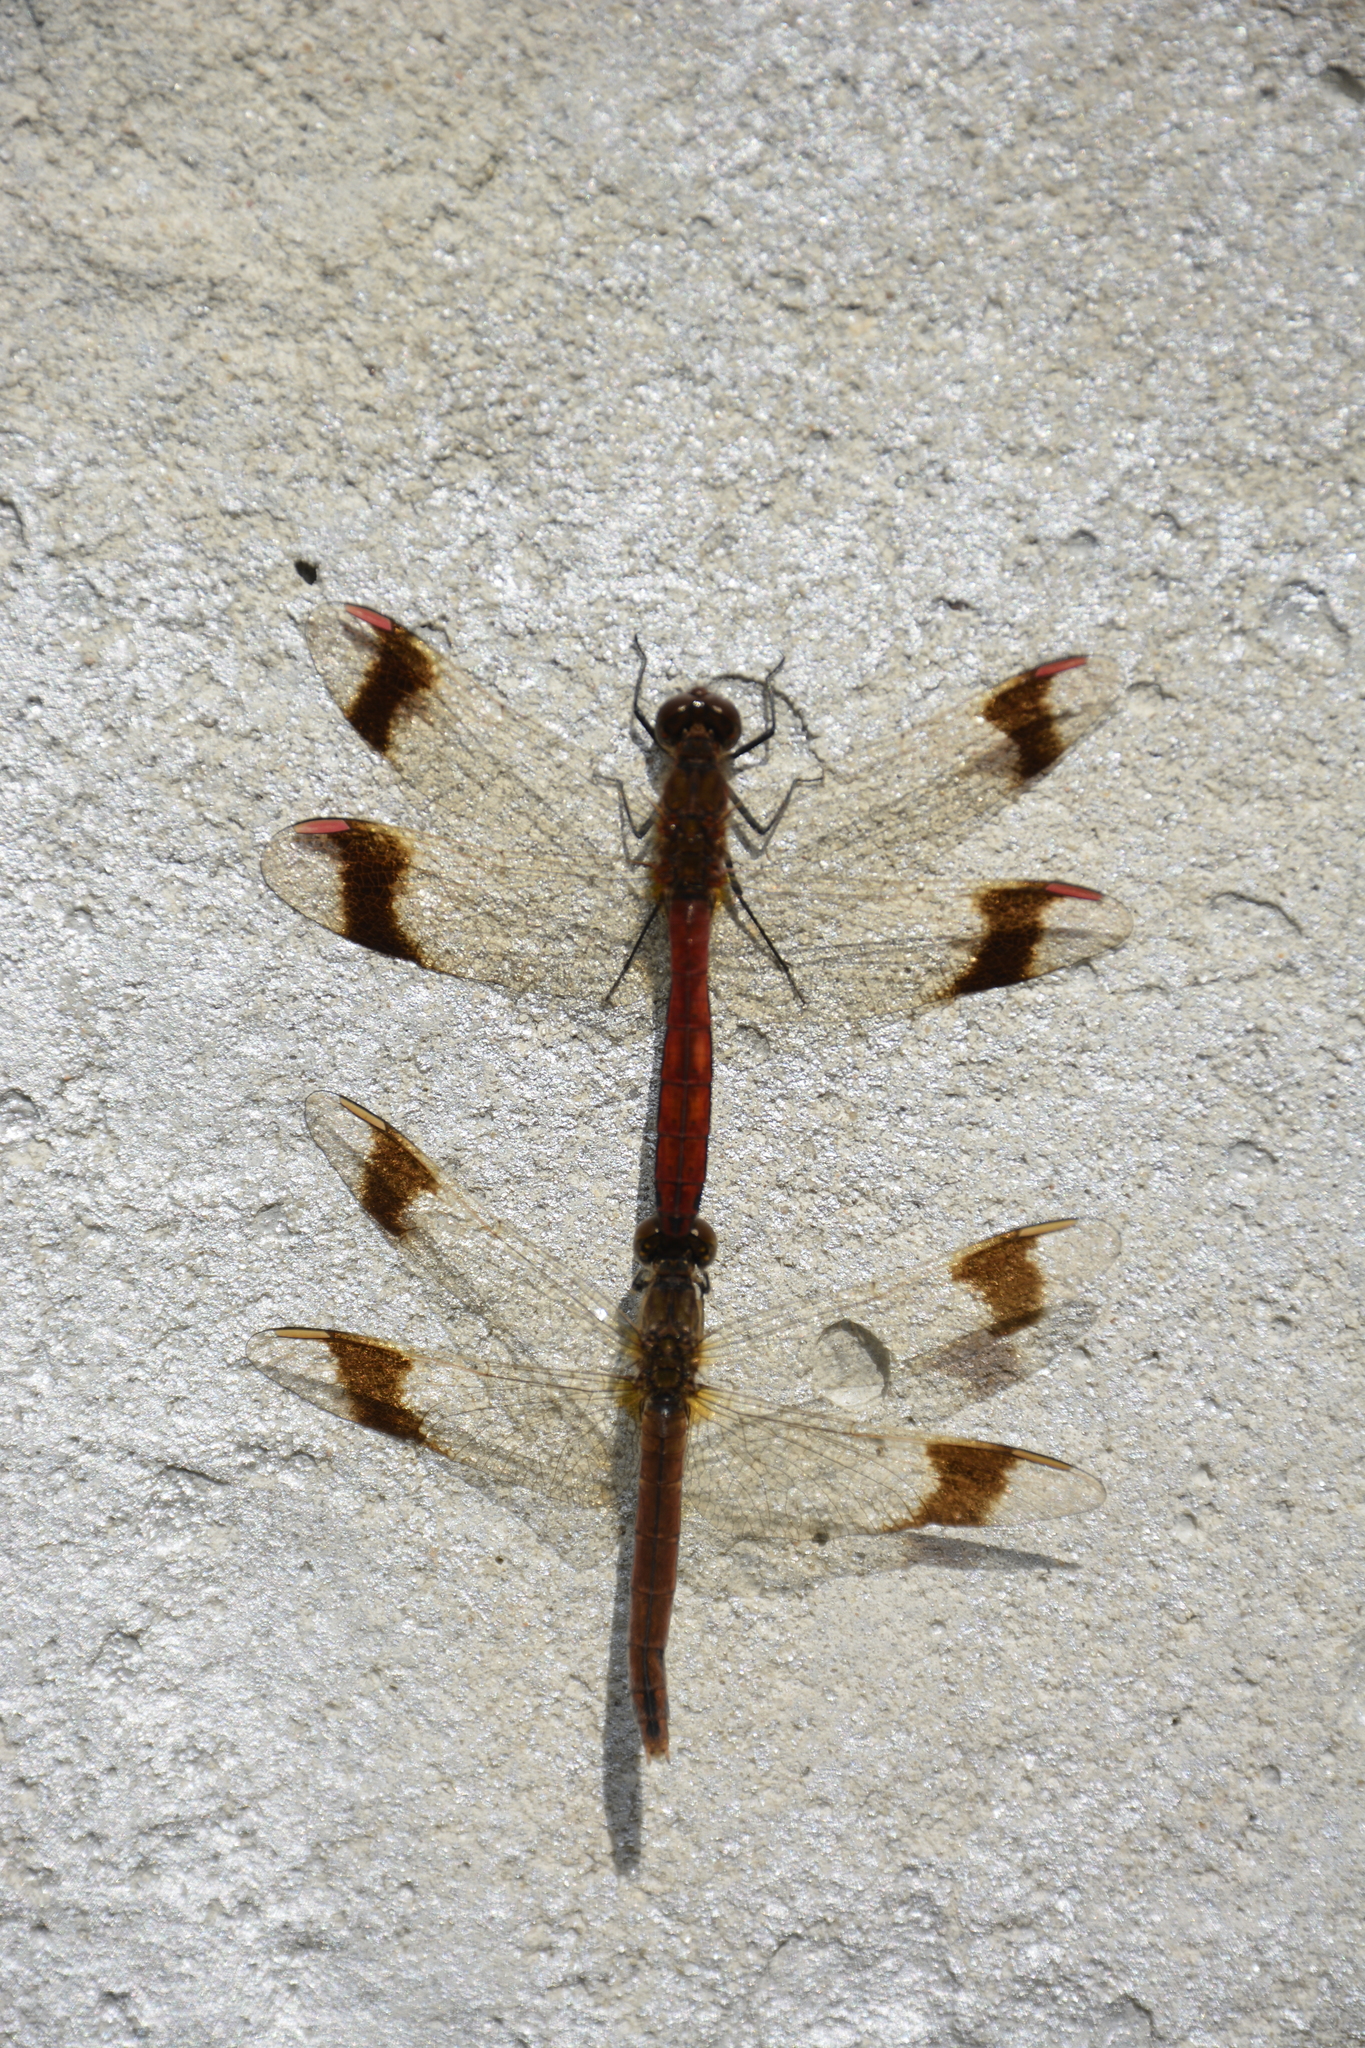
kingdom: Animalia
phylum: Arthropoda
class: Insecta
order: Odonata
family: Libellulidae
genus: Sympetrum
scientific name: Sympetrum pedemontanum
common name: Banded darter
